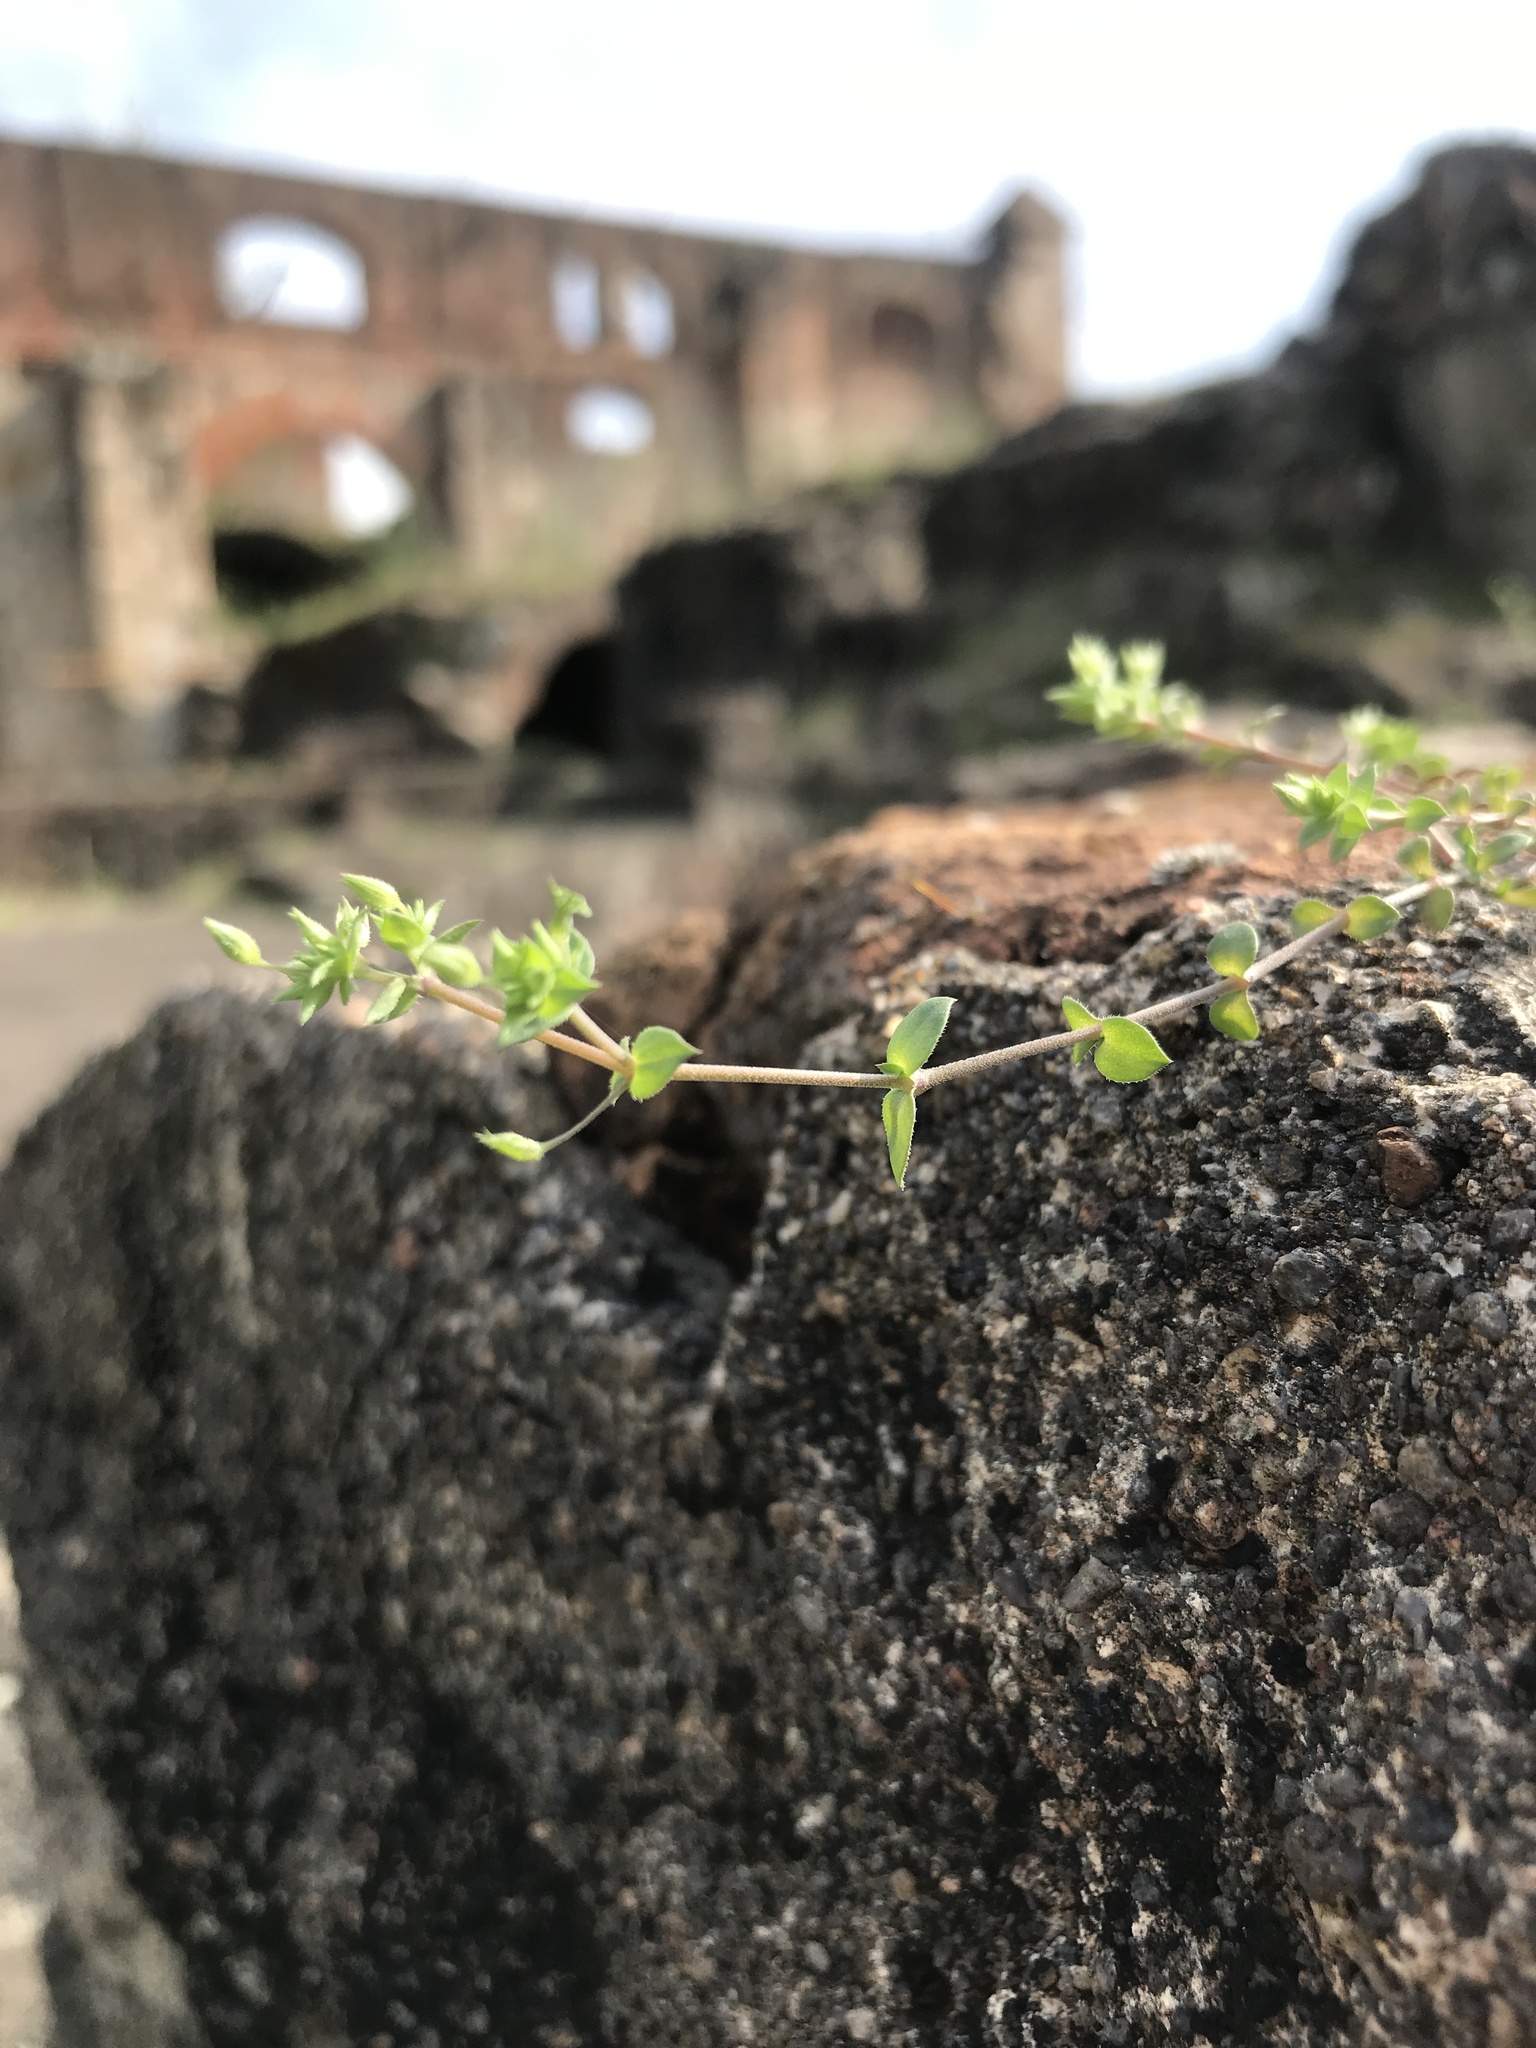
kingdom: Plantae
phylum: Tracheophyta
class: Magnoliopsida
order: Caryophyllales
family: Caryophyllaceae
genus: Arenaria
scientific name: Arenaria serpyllifolia
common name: Thyme-leaved sandwort
